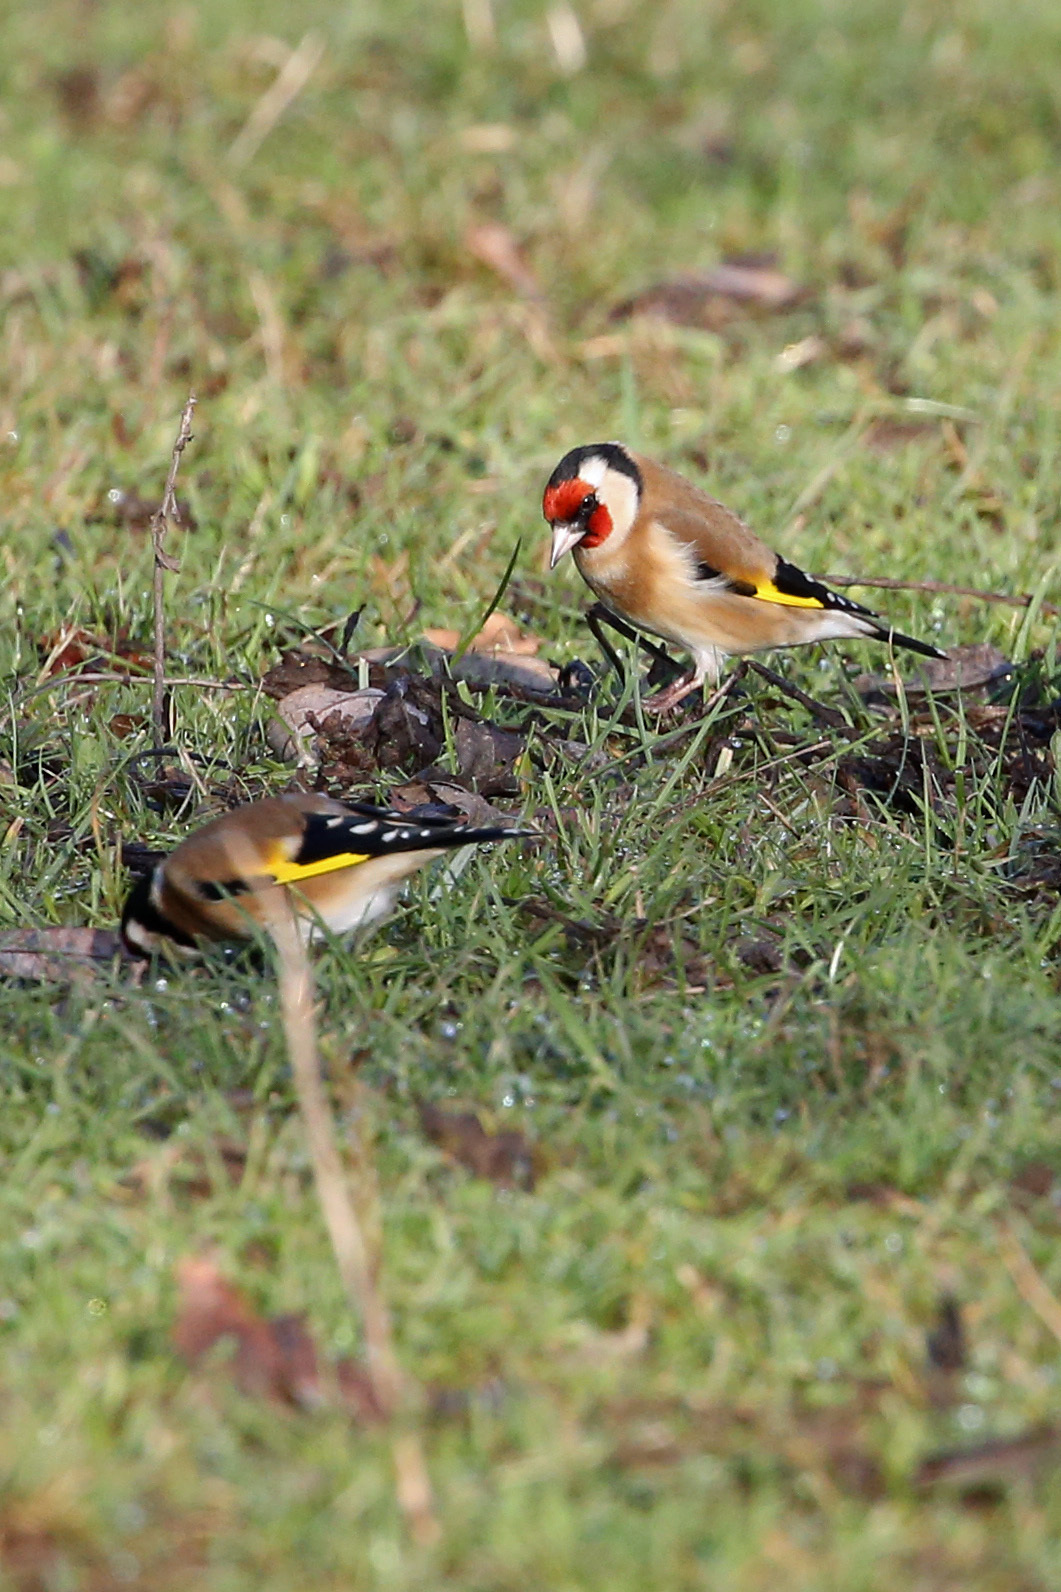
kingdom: Animalia
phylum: Chordata
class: Aves
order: Passeriformes
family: Fringillidae
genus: Carduelis
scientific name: Carduelis carduelis
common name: European goldfinch
